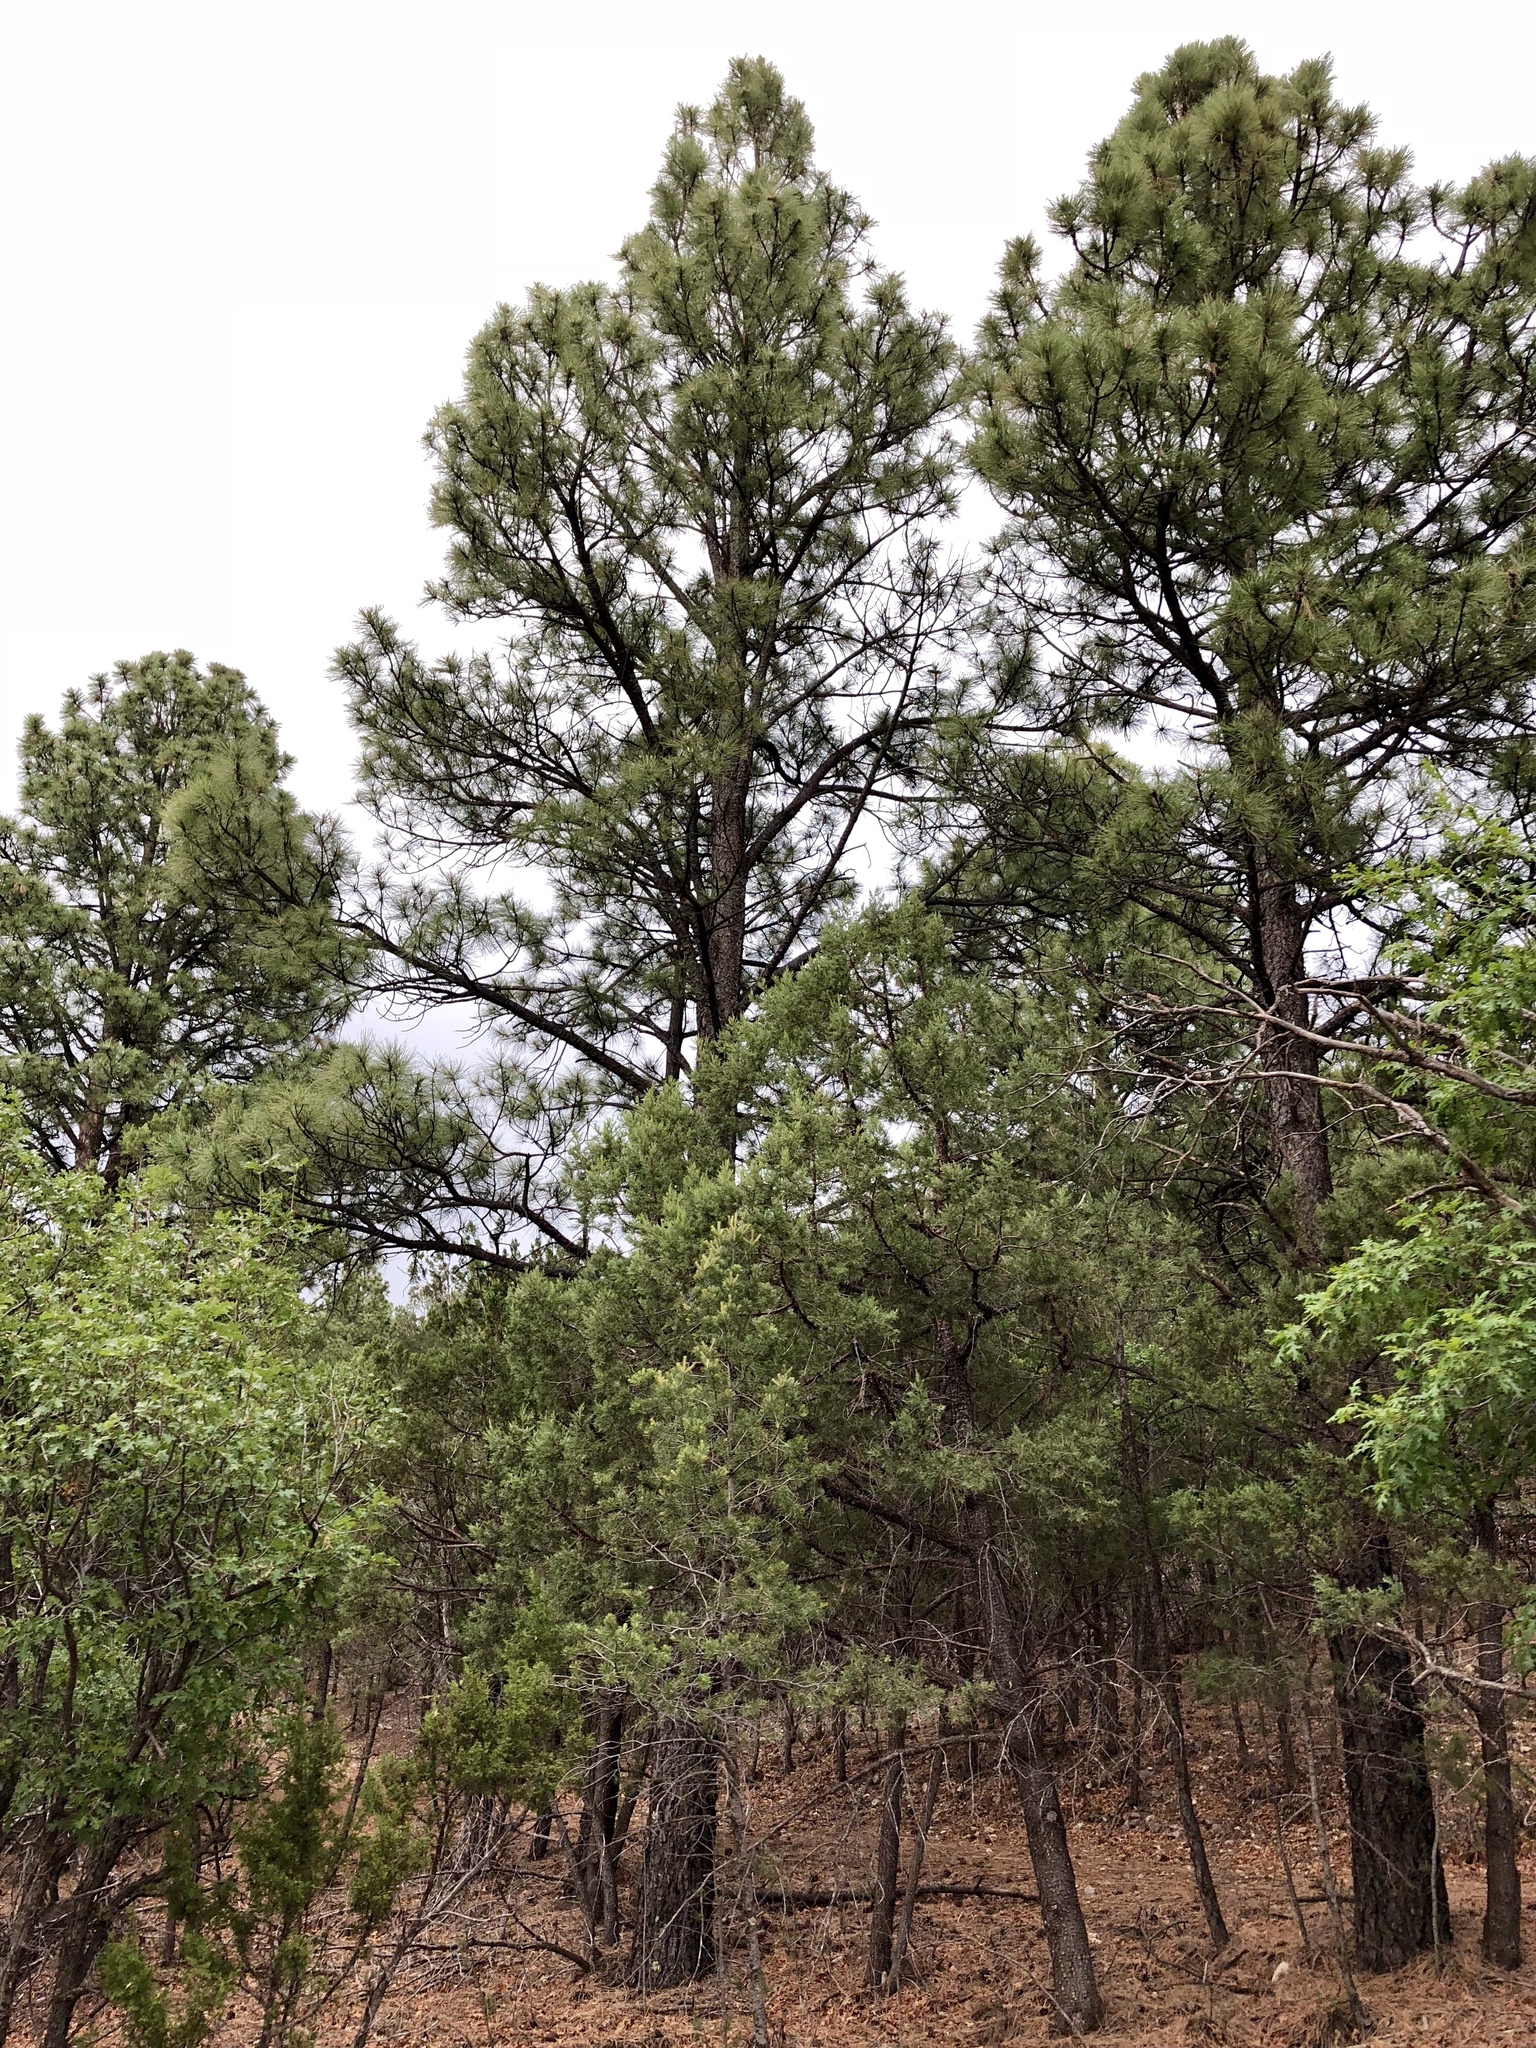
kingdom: Plantae
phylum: Tracheophyta
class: Pinopsida
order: Pinales
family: Pinaceae
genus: Pinus
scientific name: Pinus ponderosa
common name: Western yellow-pine
